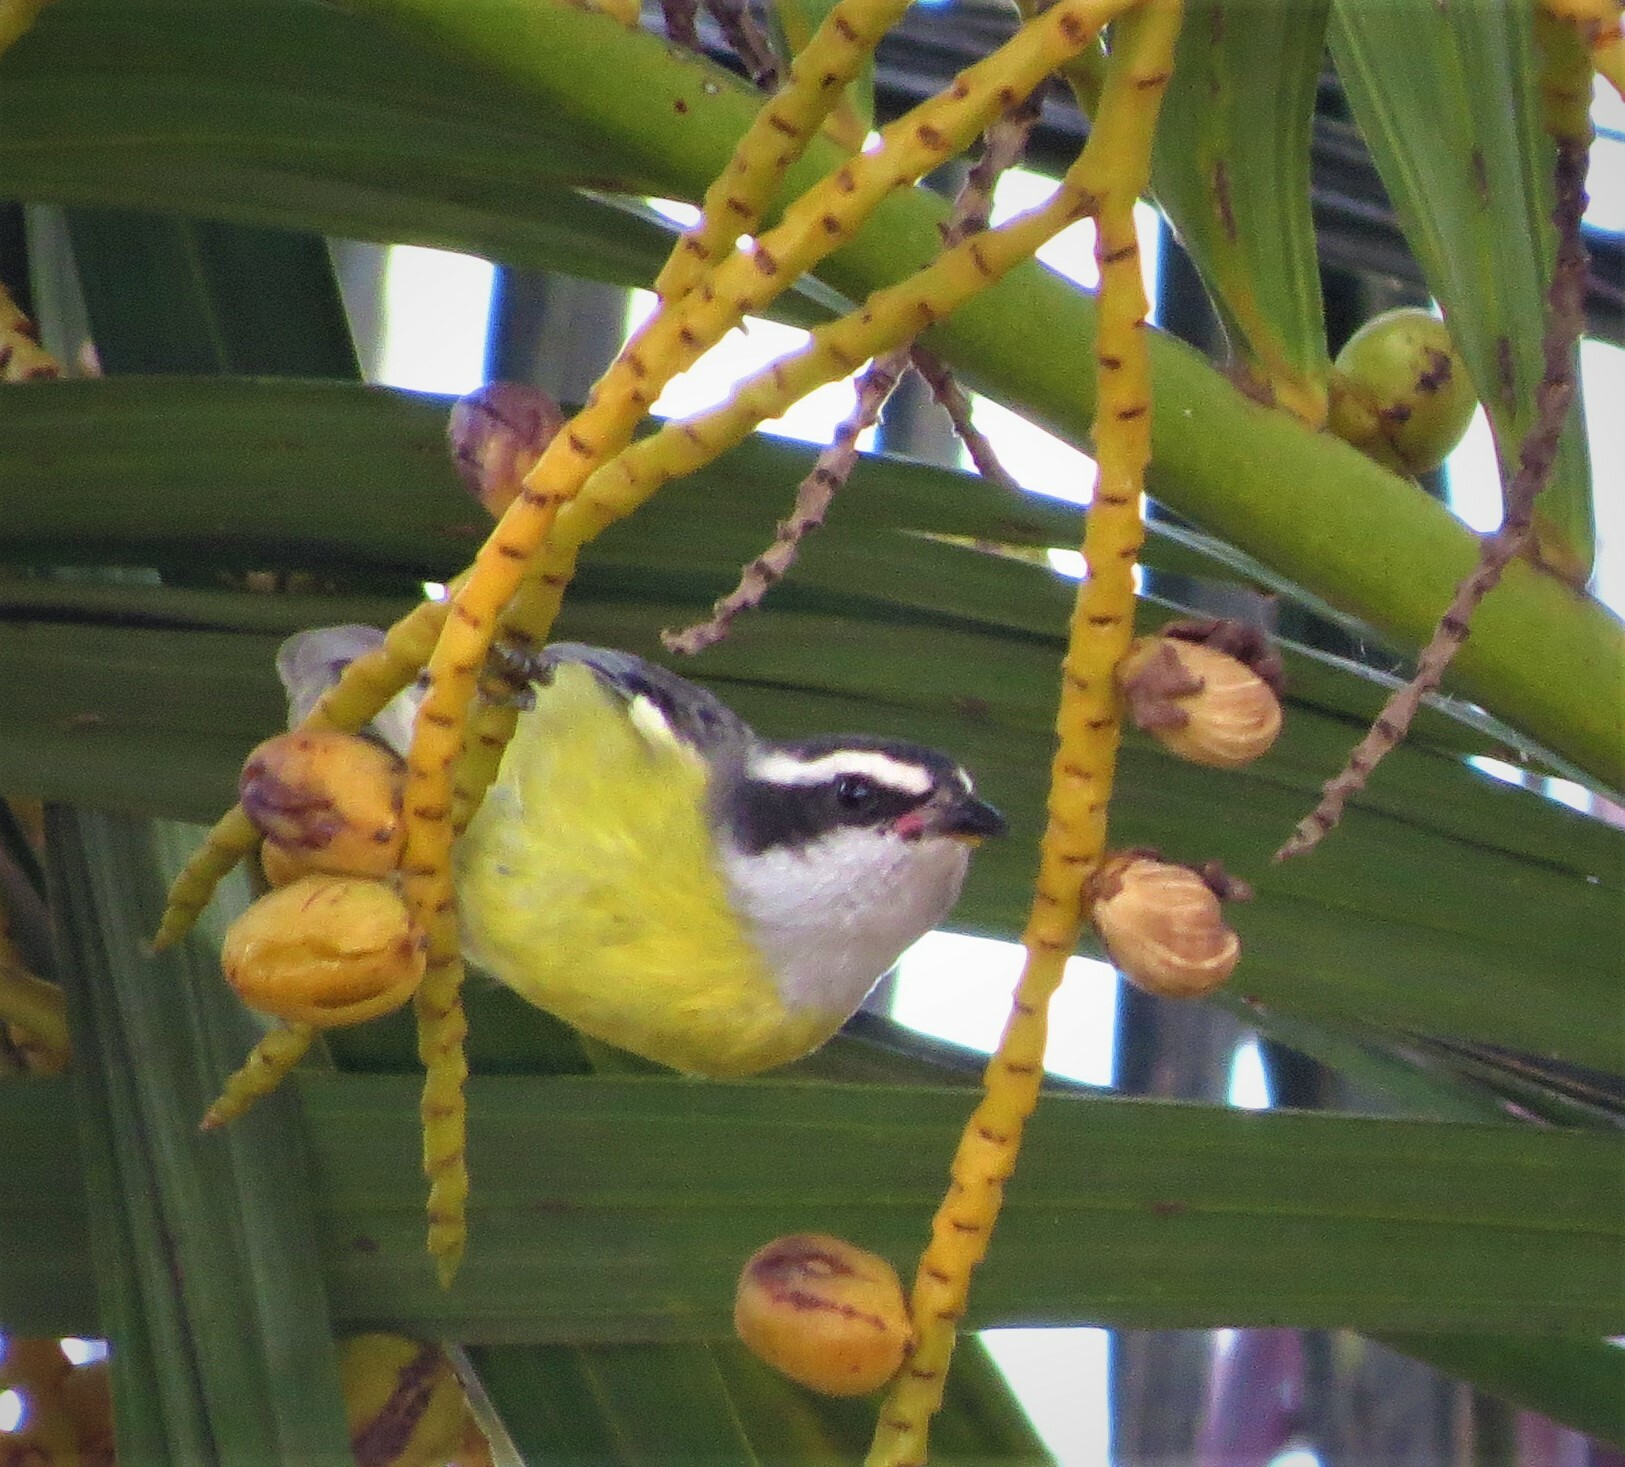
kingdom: Animalia
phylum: Chordata
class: Aves
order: Passeriformes
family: Thraupidae
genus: Coereba
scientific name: Coereba flaveola
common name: Bananaquit
